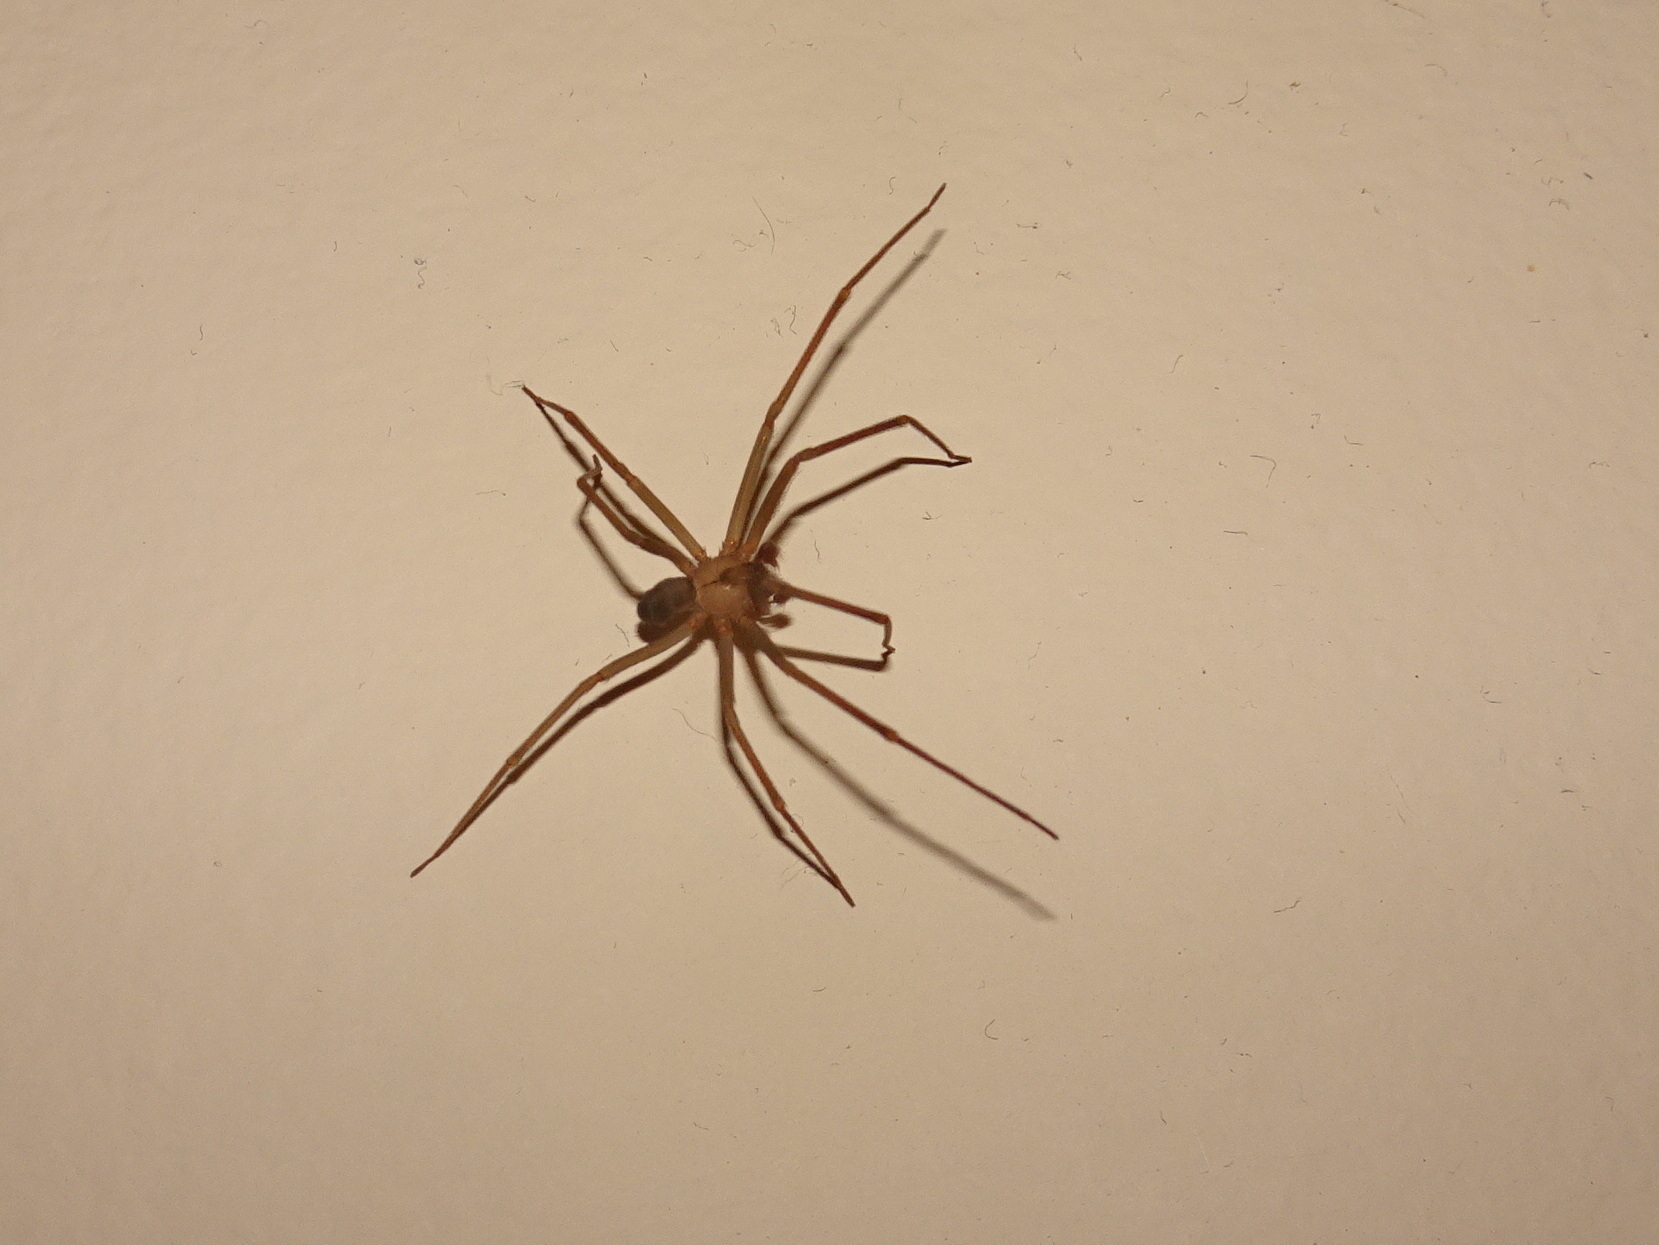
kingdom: Animalia
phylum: Arthropoda
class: Arachnida
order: Araneae
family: Sicariidae
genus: Loxosceles
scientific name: Loxosceles reclusa
